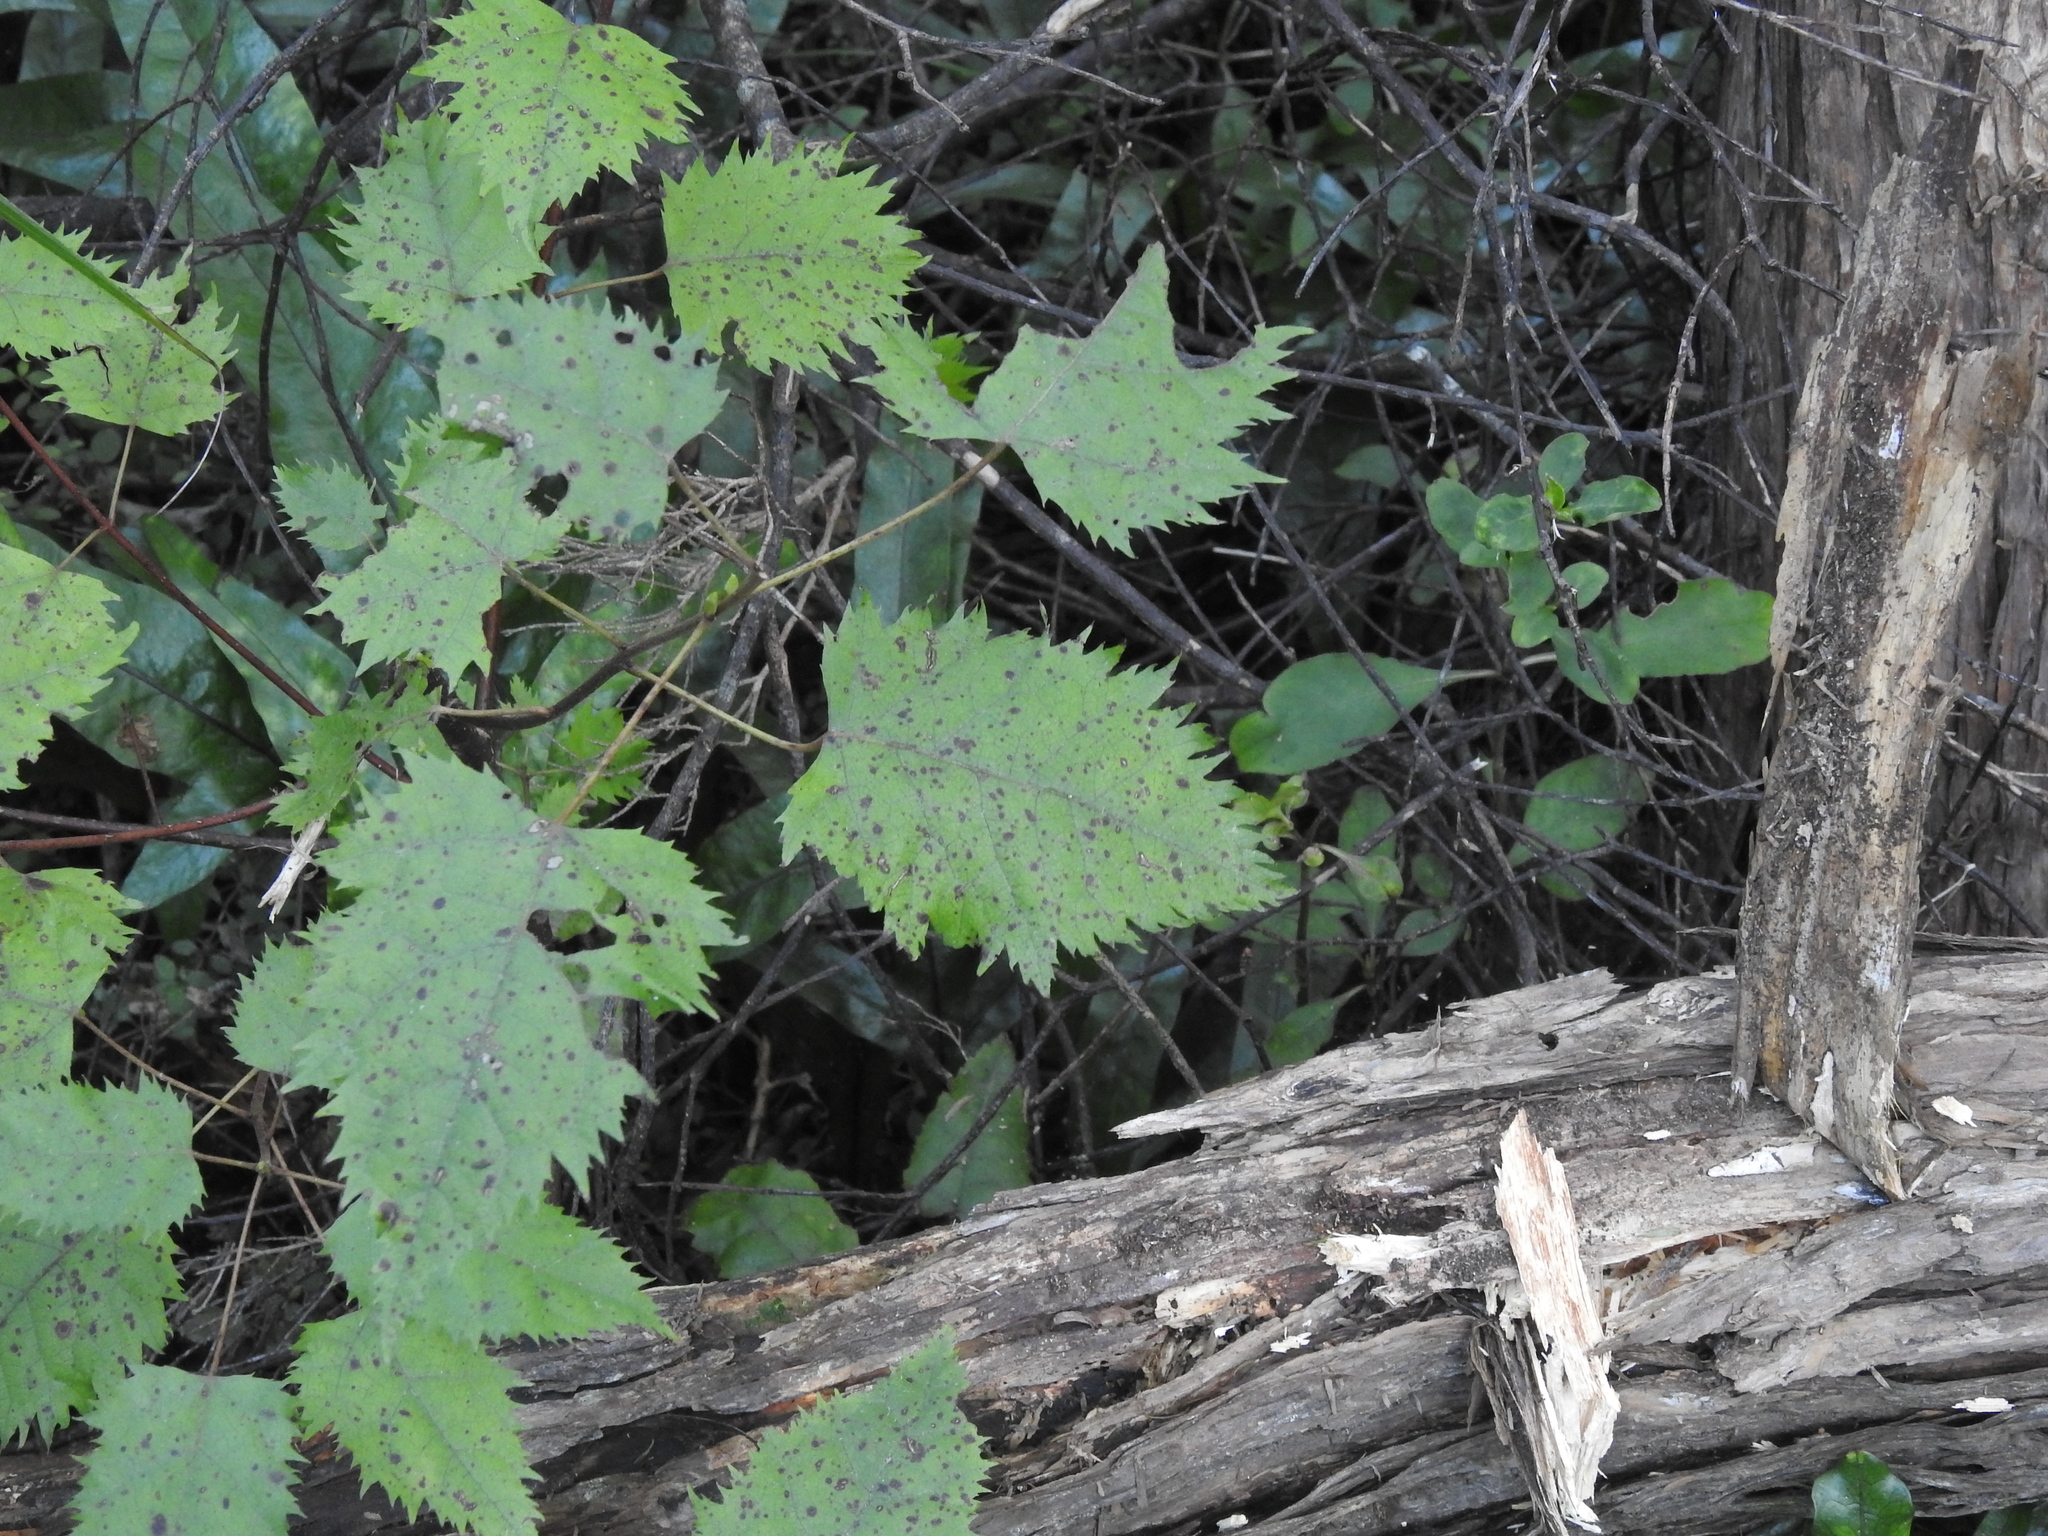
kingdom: Plantae
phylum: Tracheophyta
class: Magnoliopsida
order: Oxalidales
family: Elaeocarpaceae
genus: Aristotelia
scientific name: Aristotelia serrata
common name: New zealand wineberry
